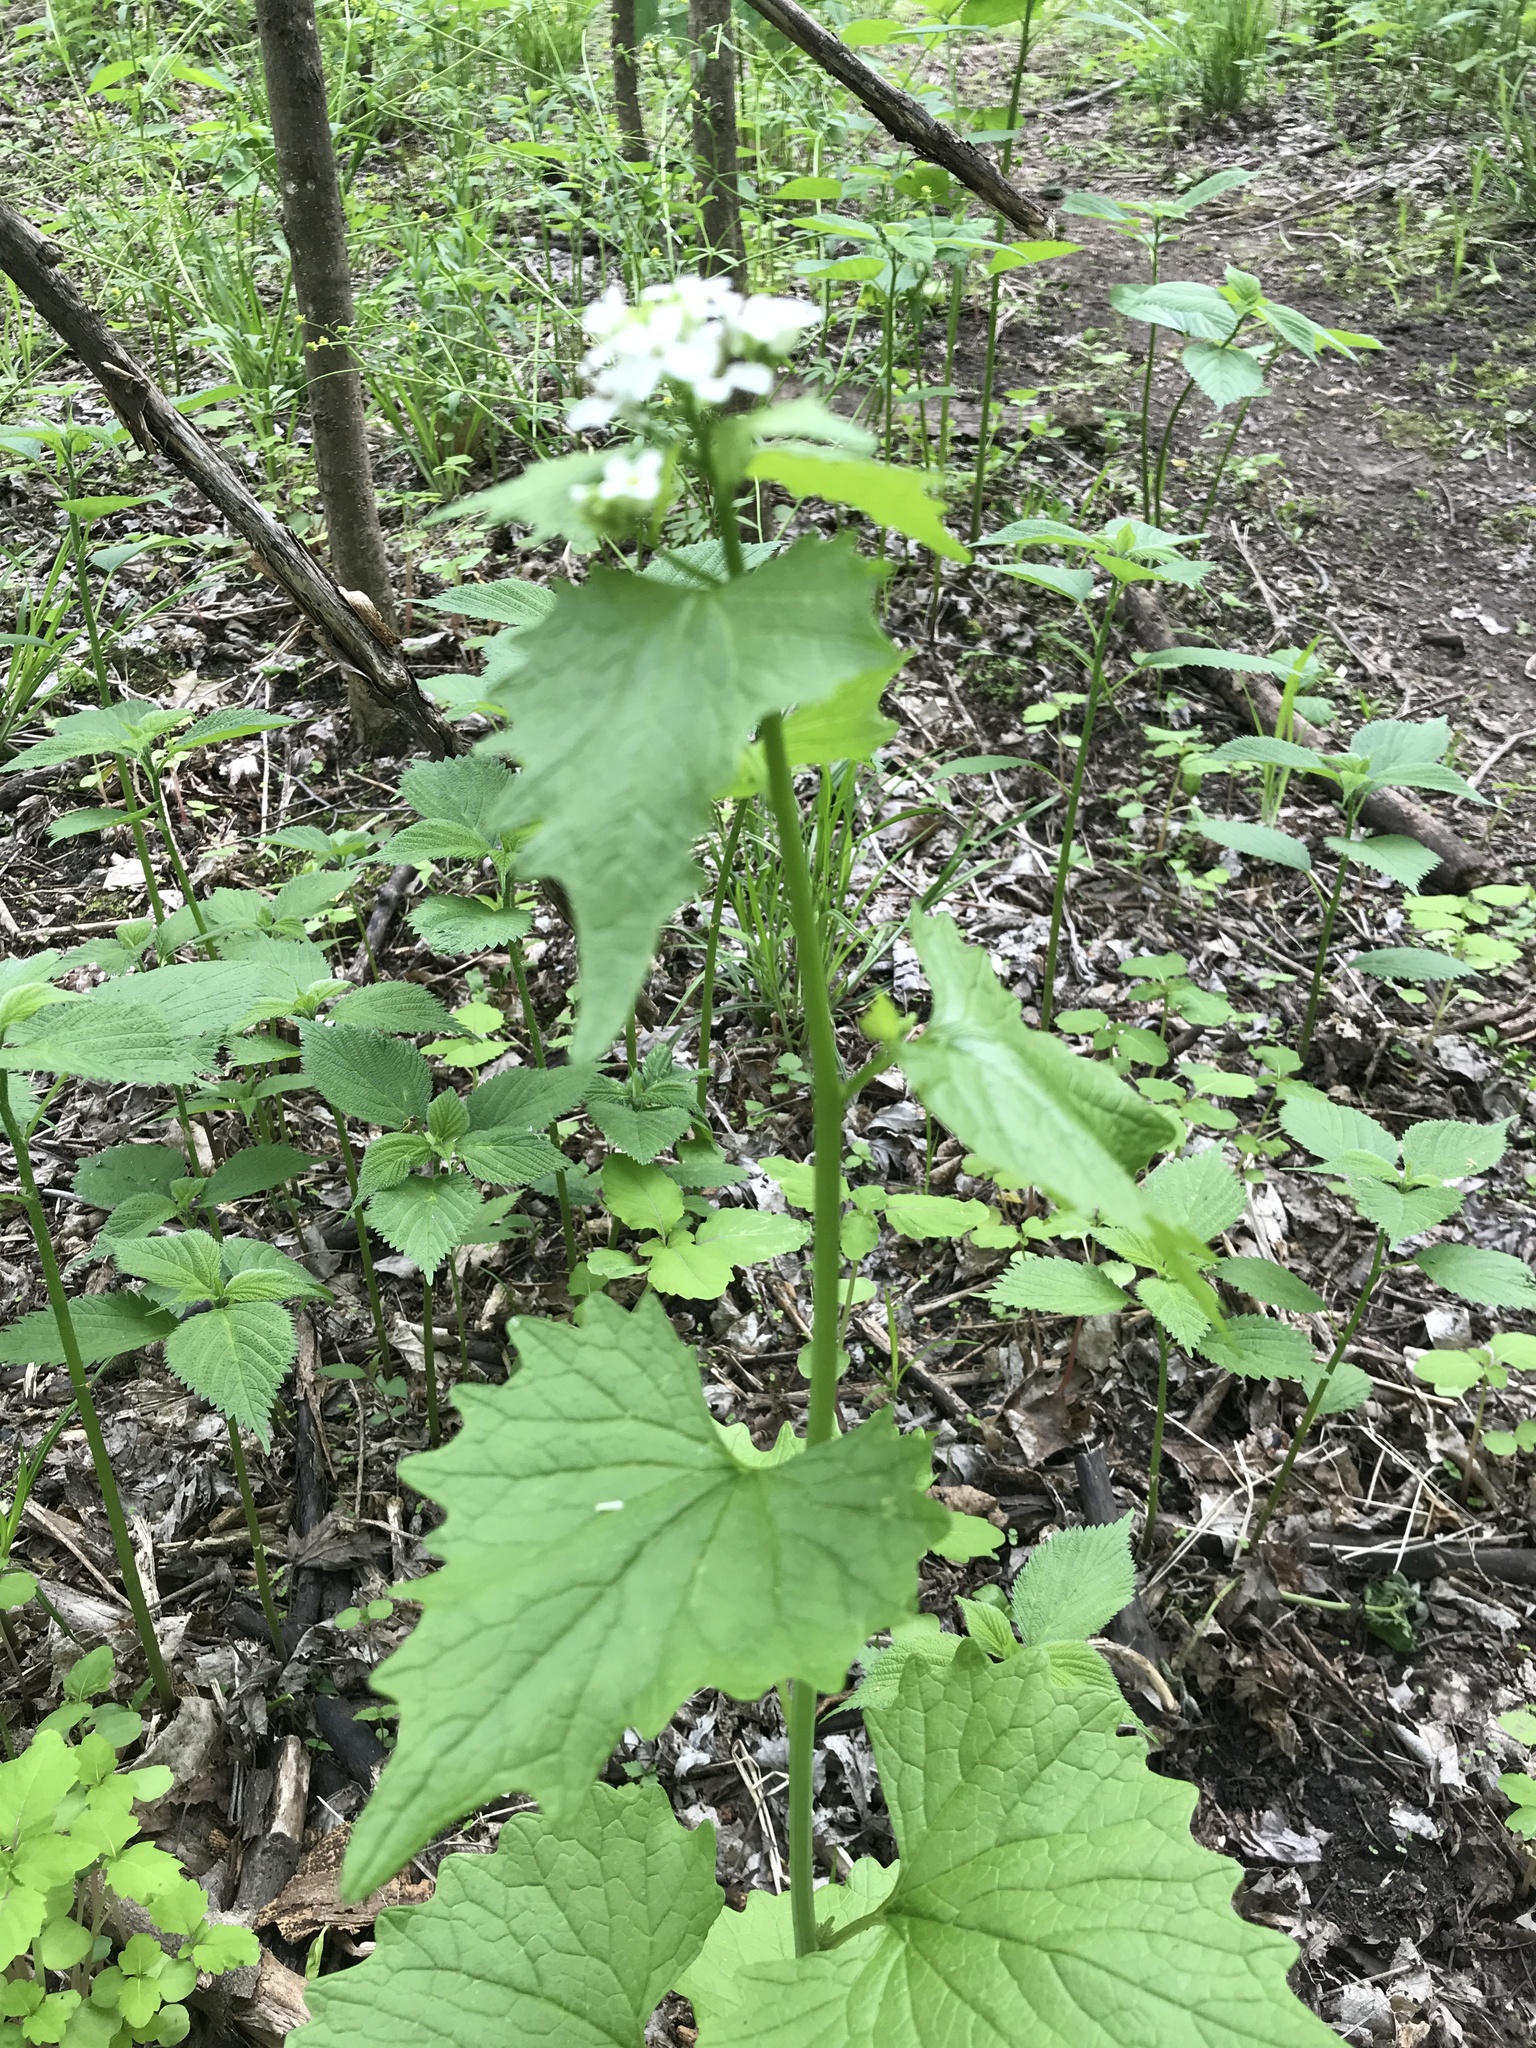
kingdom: Plantae
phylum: Tracheophyta
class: Magnoliopsida
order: Brassicales
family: Brassicaceae
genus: Alliaria
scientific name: Alliaria petiolata
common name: Garlic mustard
